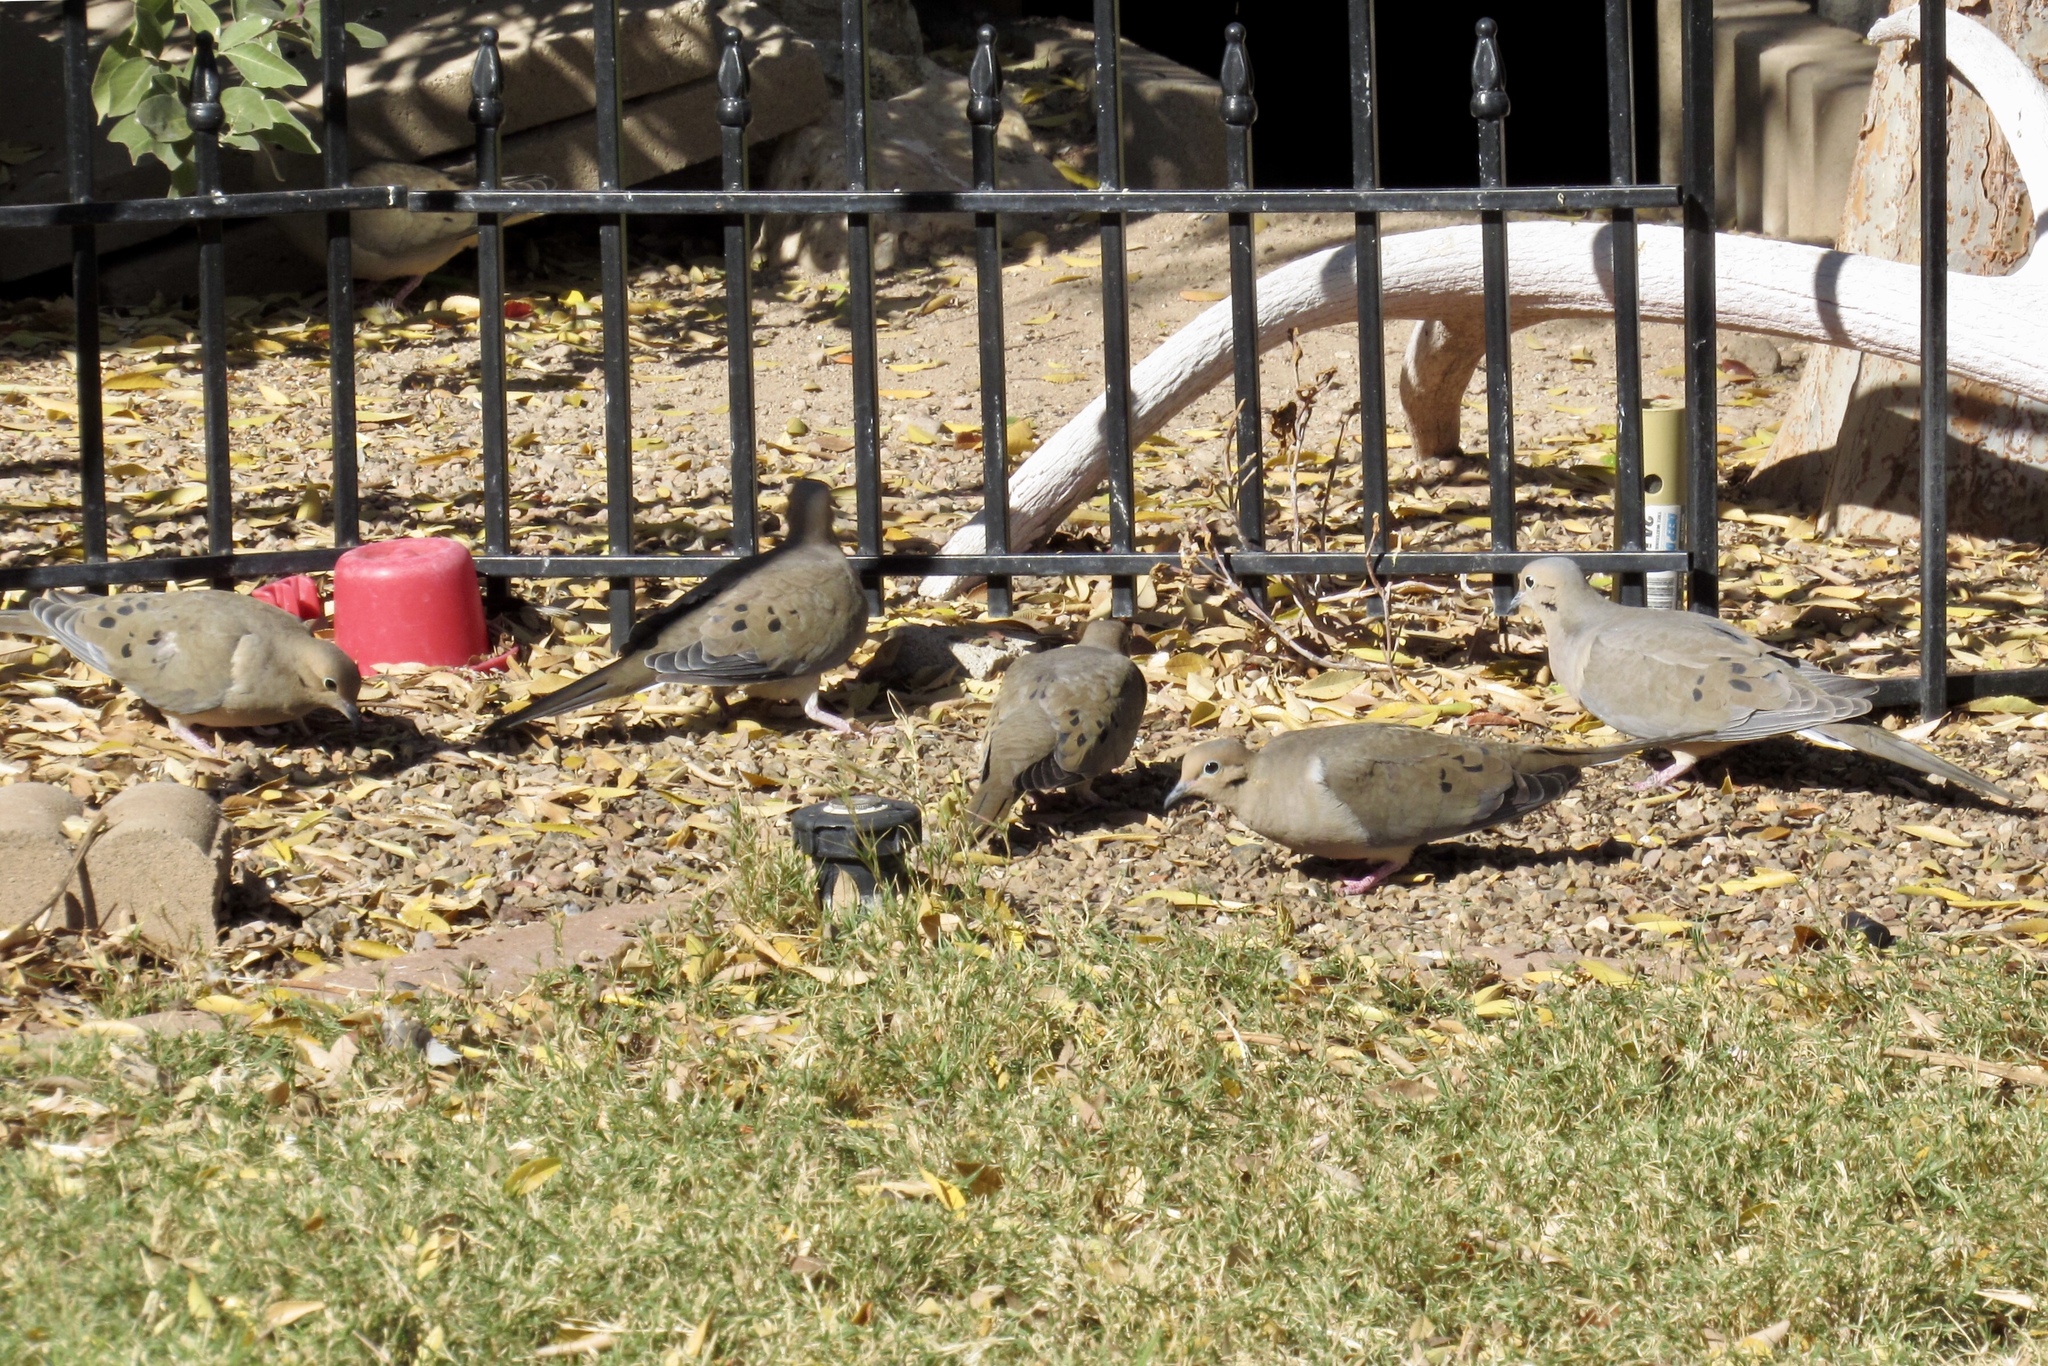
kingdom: Animalia
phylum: Chordata
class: Aves
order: Columbiformes
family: Columbidae
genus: Zenaida
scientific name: Zenaida macroura
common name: Mourning dove
